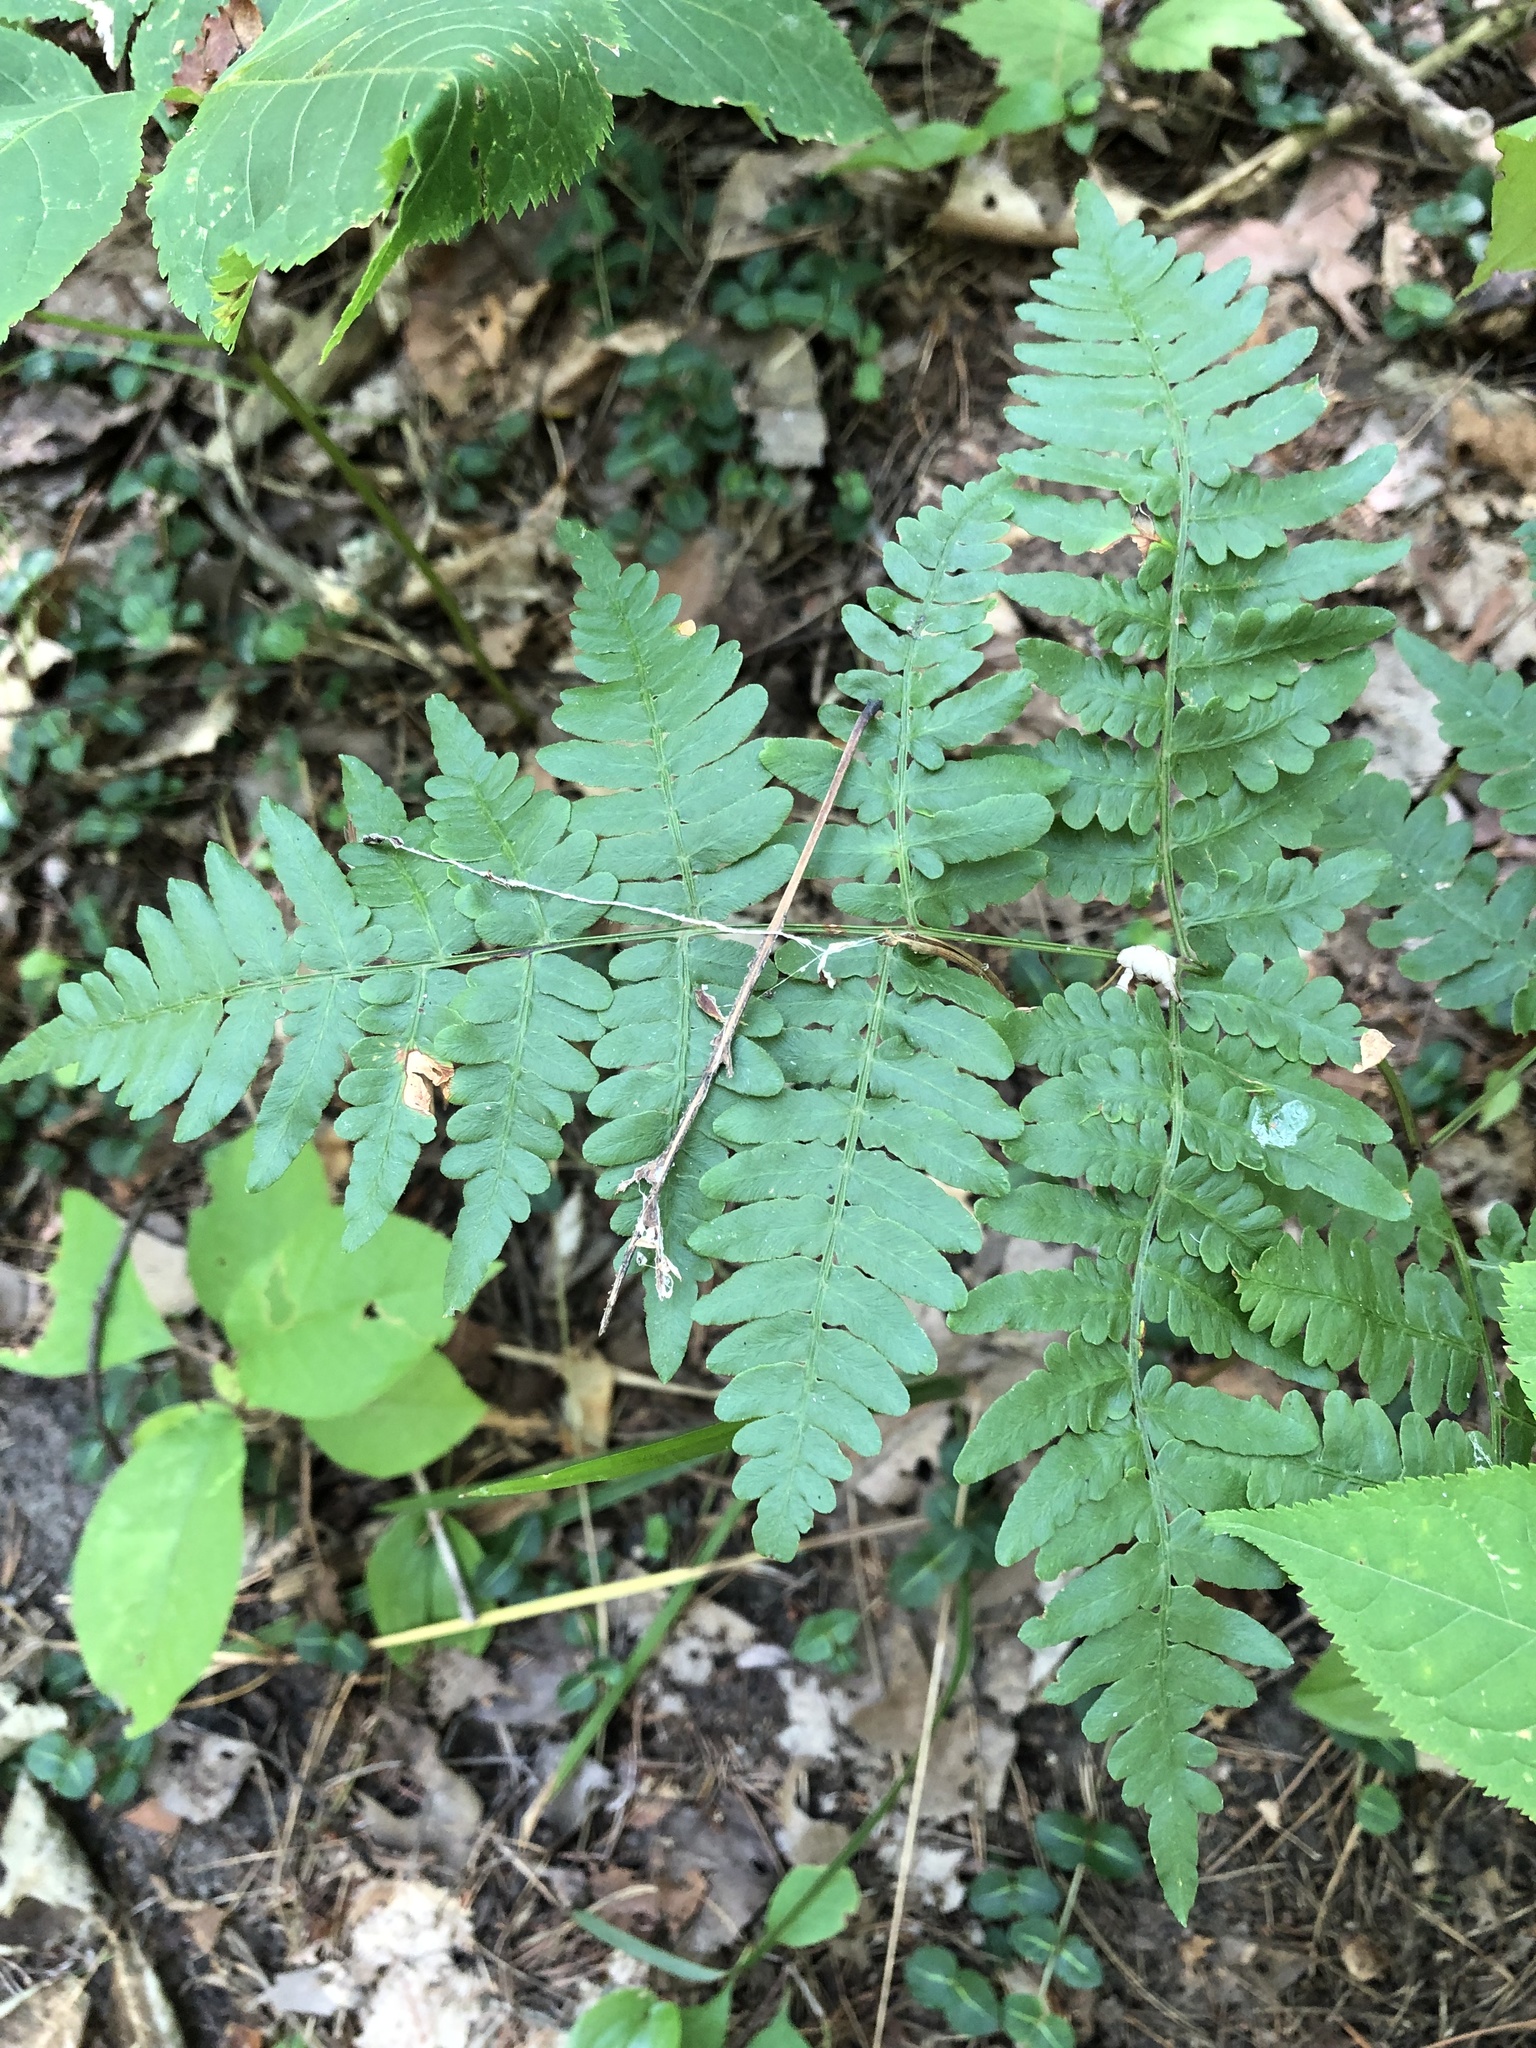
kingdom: Plantae
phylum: Tracheophyta
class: Polypodiopsida
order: Polypodiales
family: Dennstaedtiaceae
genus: Pteridium
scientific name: Pteridium aquilinum
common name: Bracken
